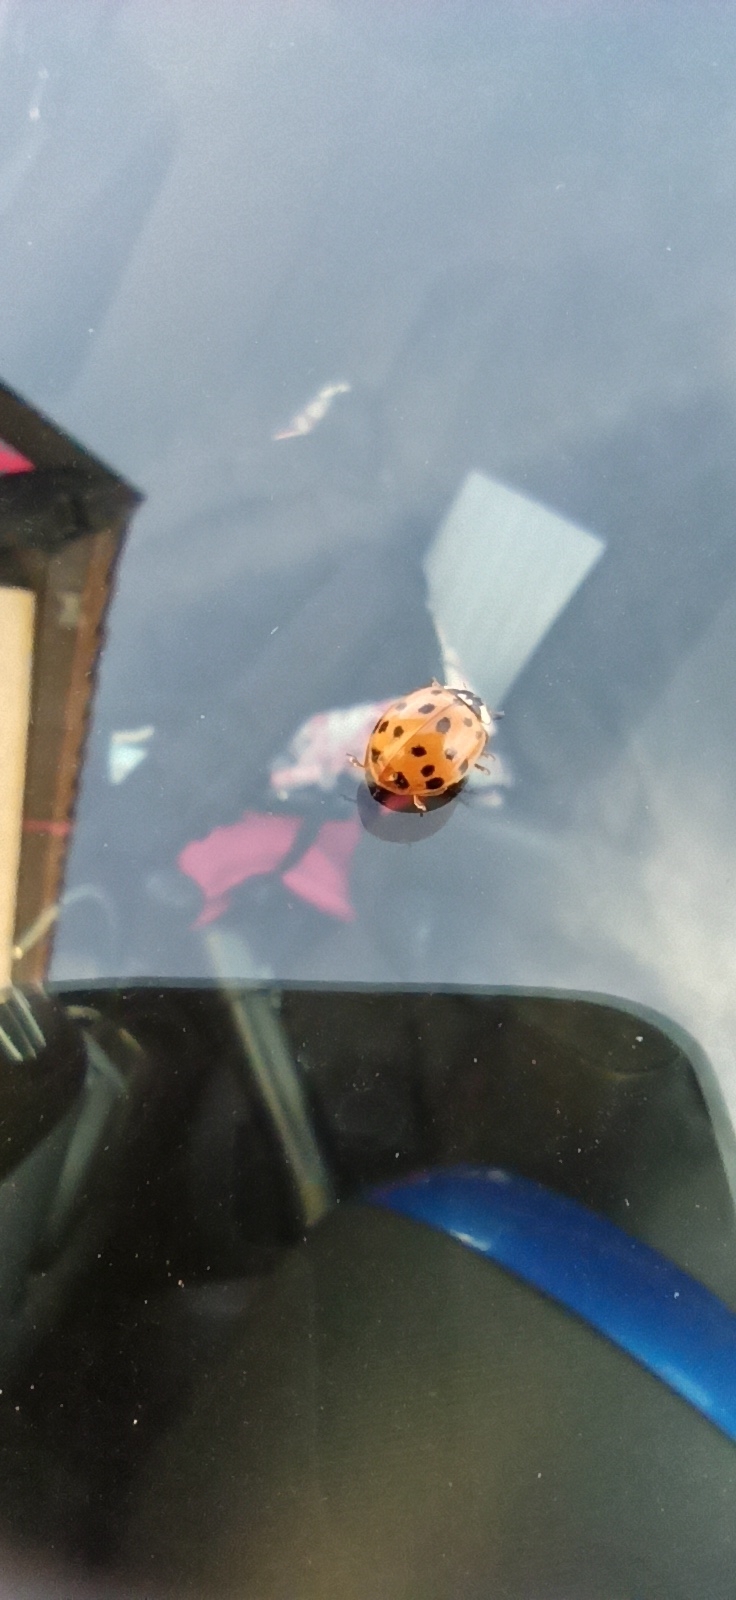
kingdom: Animalia
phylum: Arthropoda
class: Insecta
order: Coleoptera
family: Coccinellidae
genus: Harmonia
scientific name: Harmonia axyridis
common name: Harlequin ladybird
